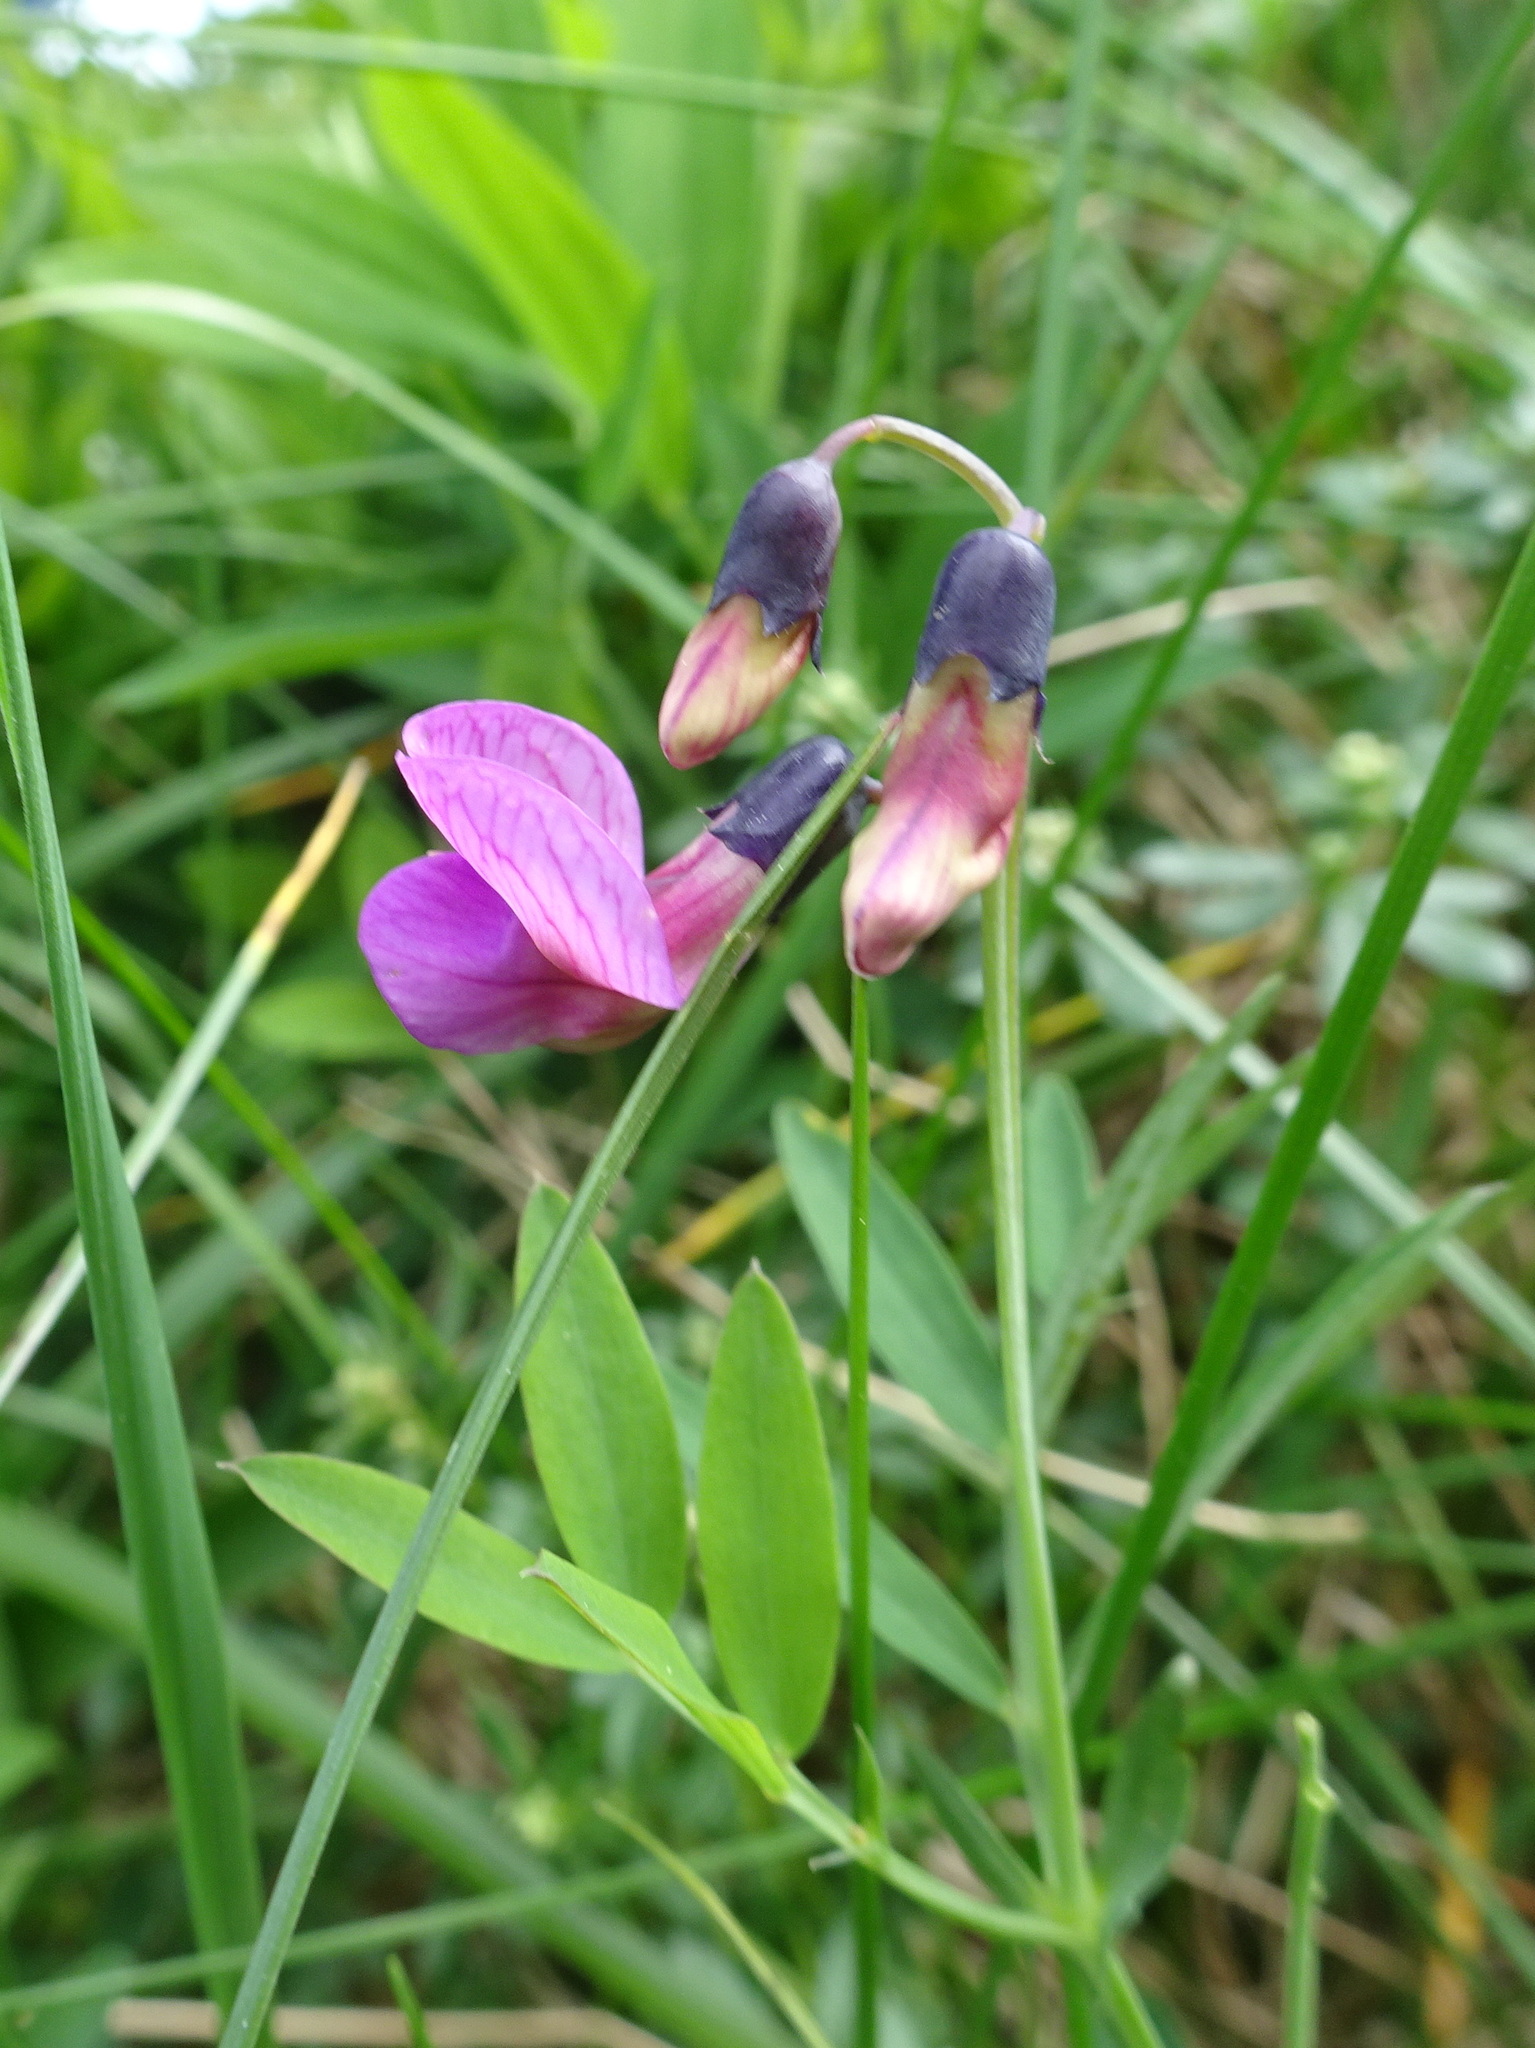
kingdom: Plantae
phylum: Tracheophyta
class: Magnoliopsida
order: Fabales
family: Fabaceae
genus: Lathyrus
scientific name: Lathyrus linifolius
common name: Bitter-vetch
